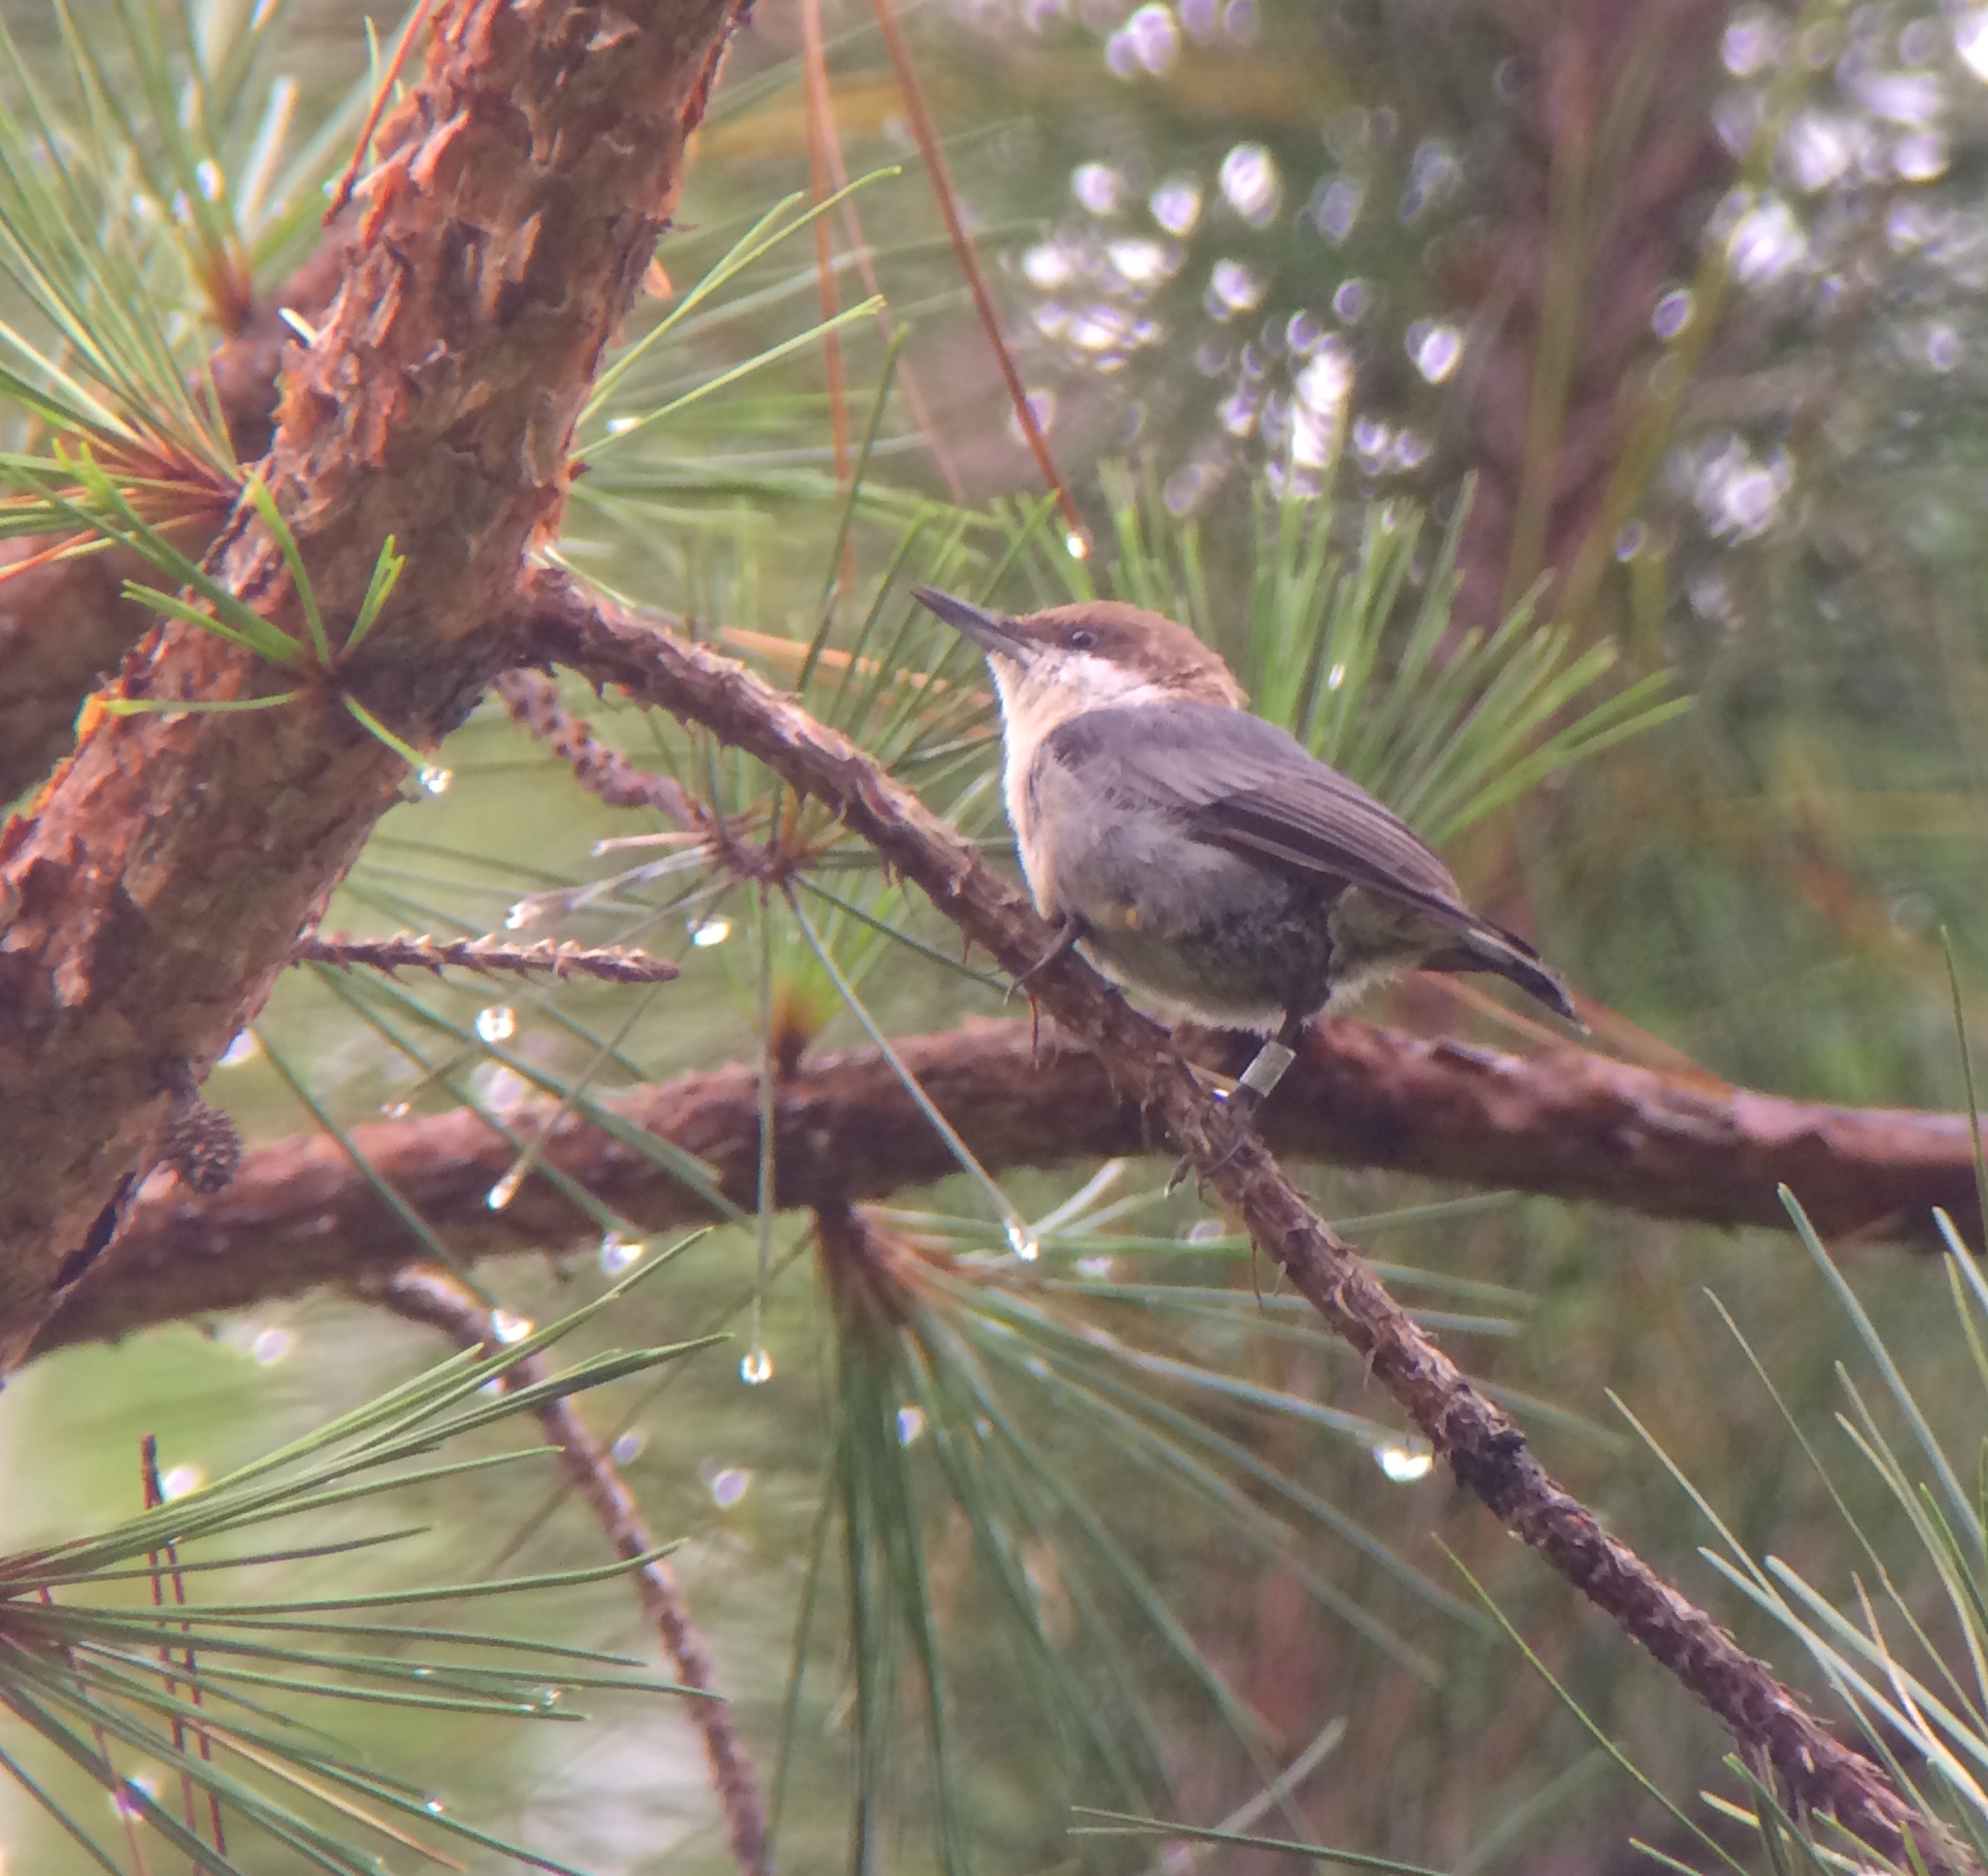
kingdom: Animalia
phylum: Chordata
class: Aves
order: Passeriformes
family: Sittidae
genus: Sitta
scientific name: Sitta pusilla
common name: Brown-headed nuthatch
